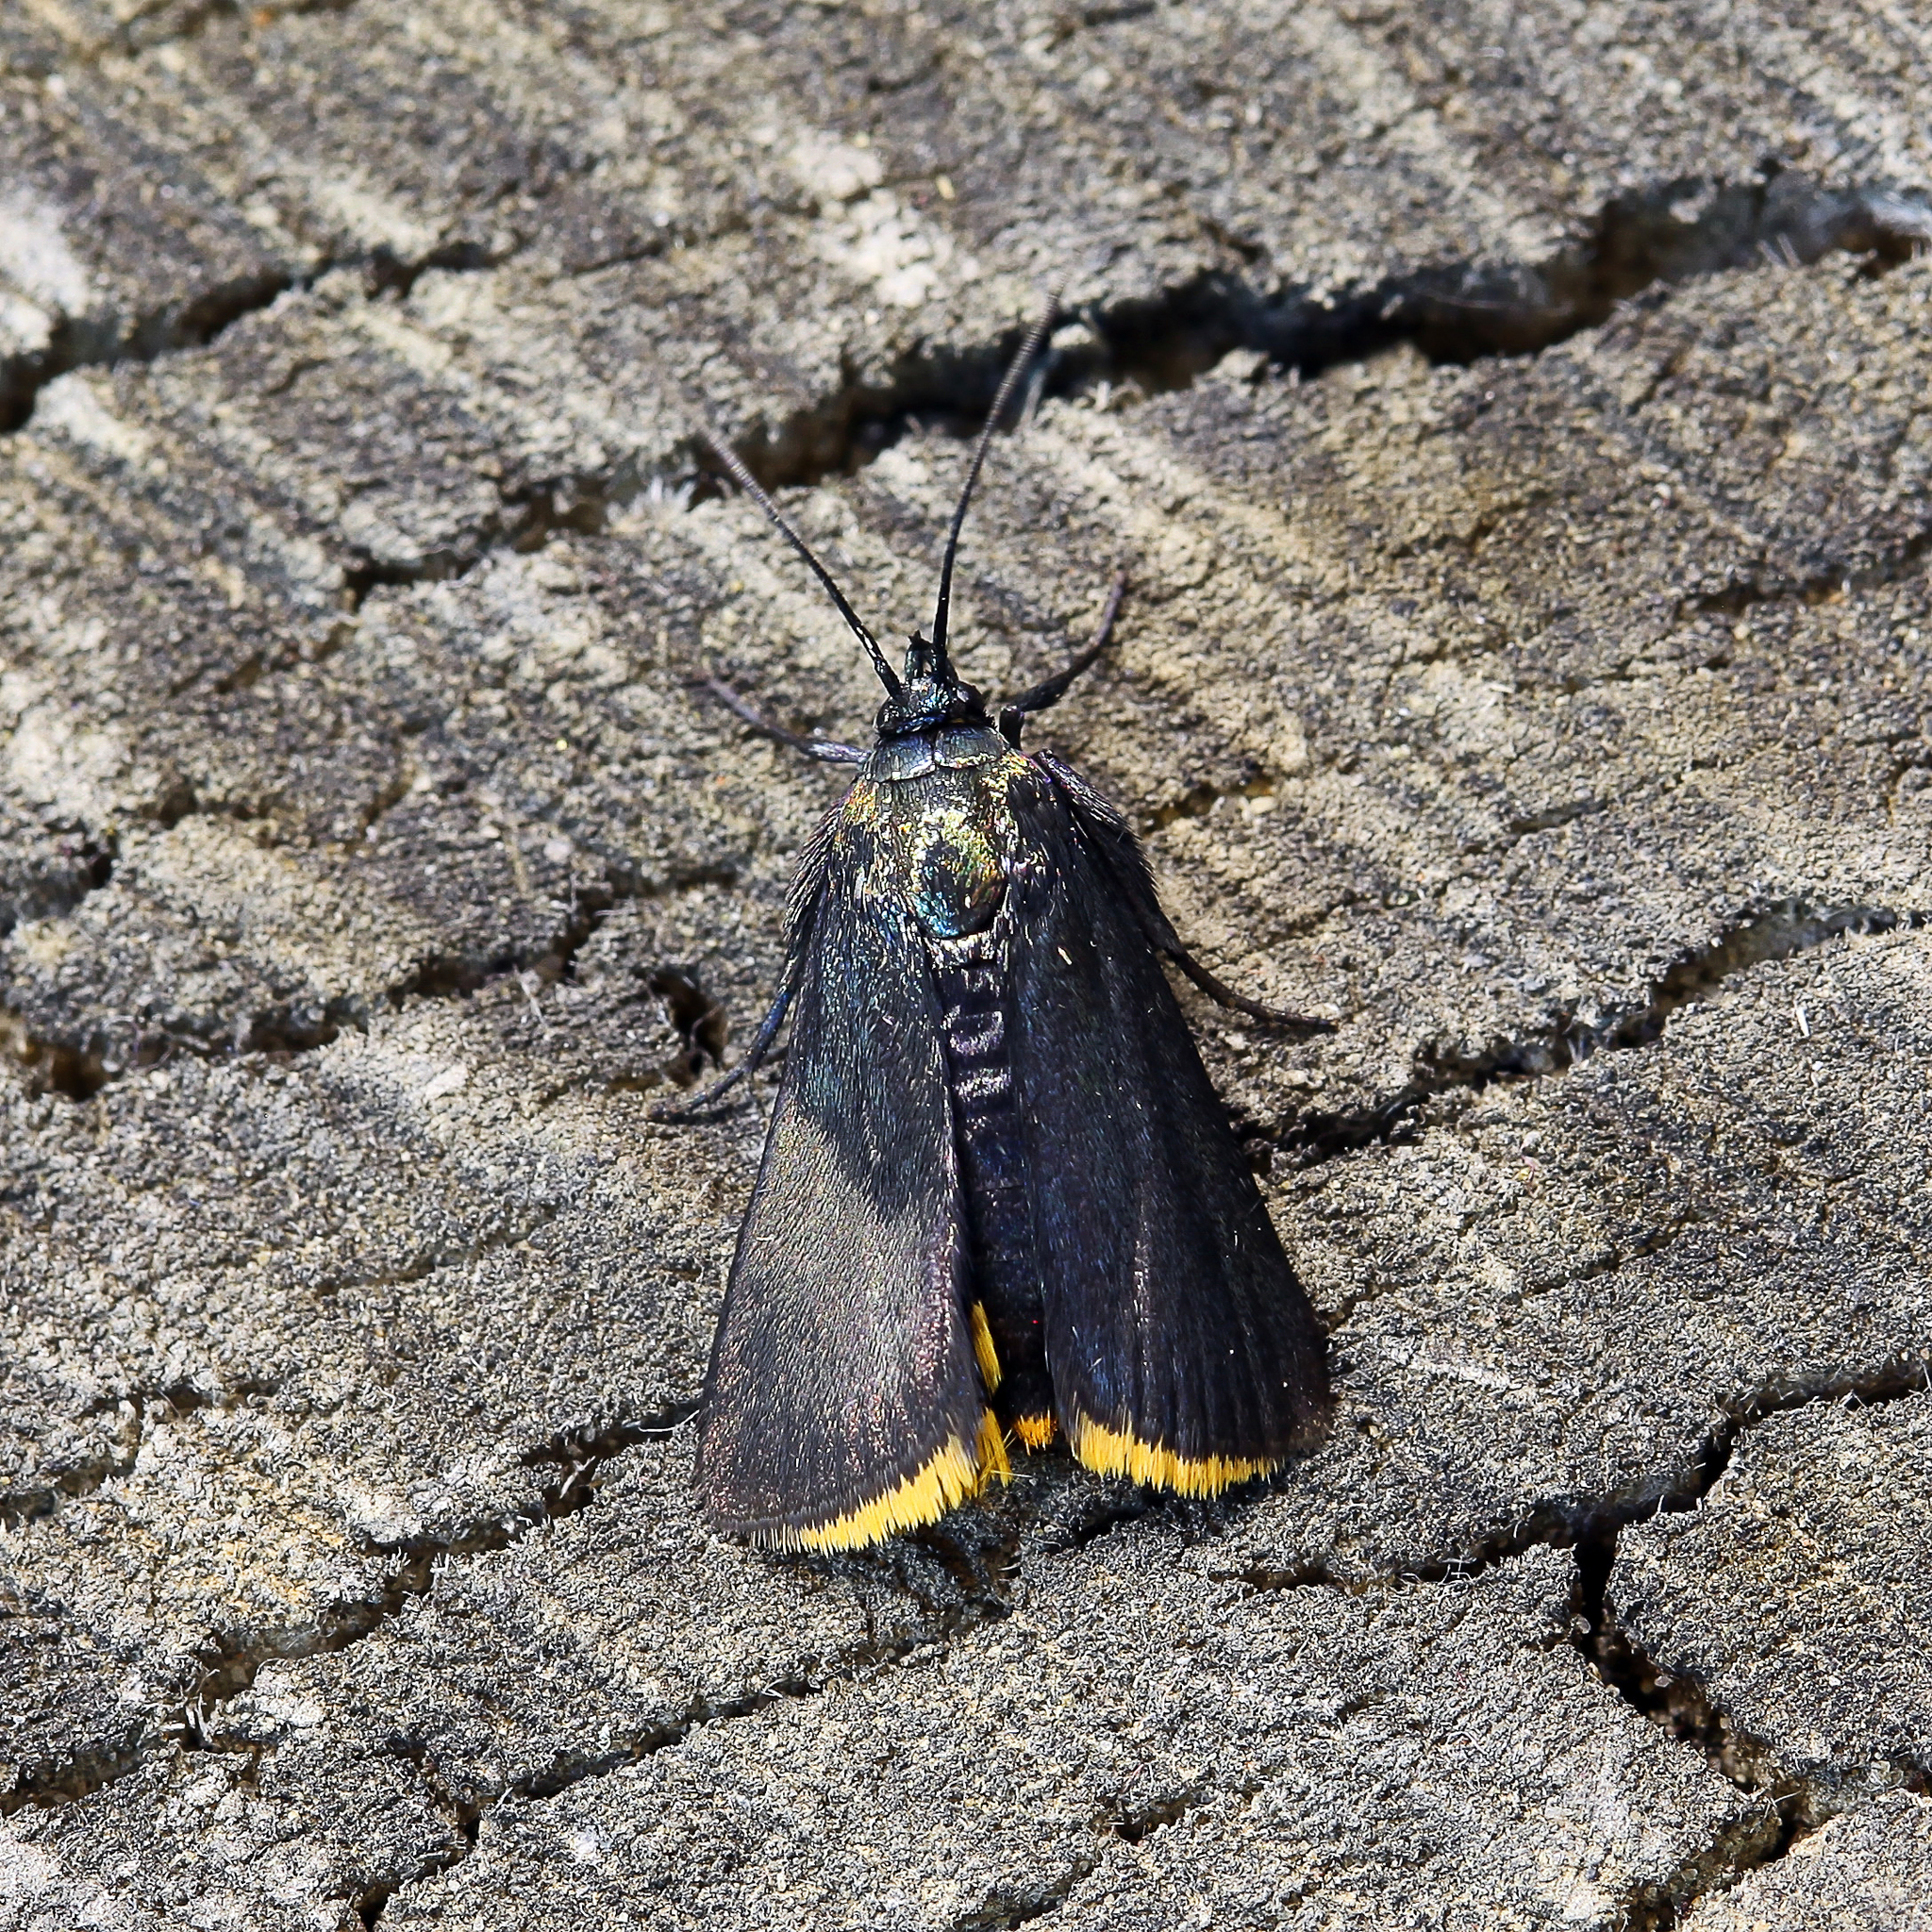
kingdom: Animalia
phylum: Arthropoda
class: Insecta
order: Lepidoptera
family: Pyralidae
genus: Catastia
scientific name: Catastia marginea
